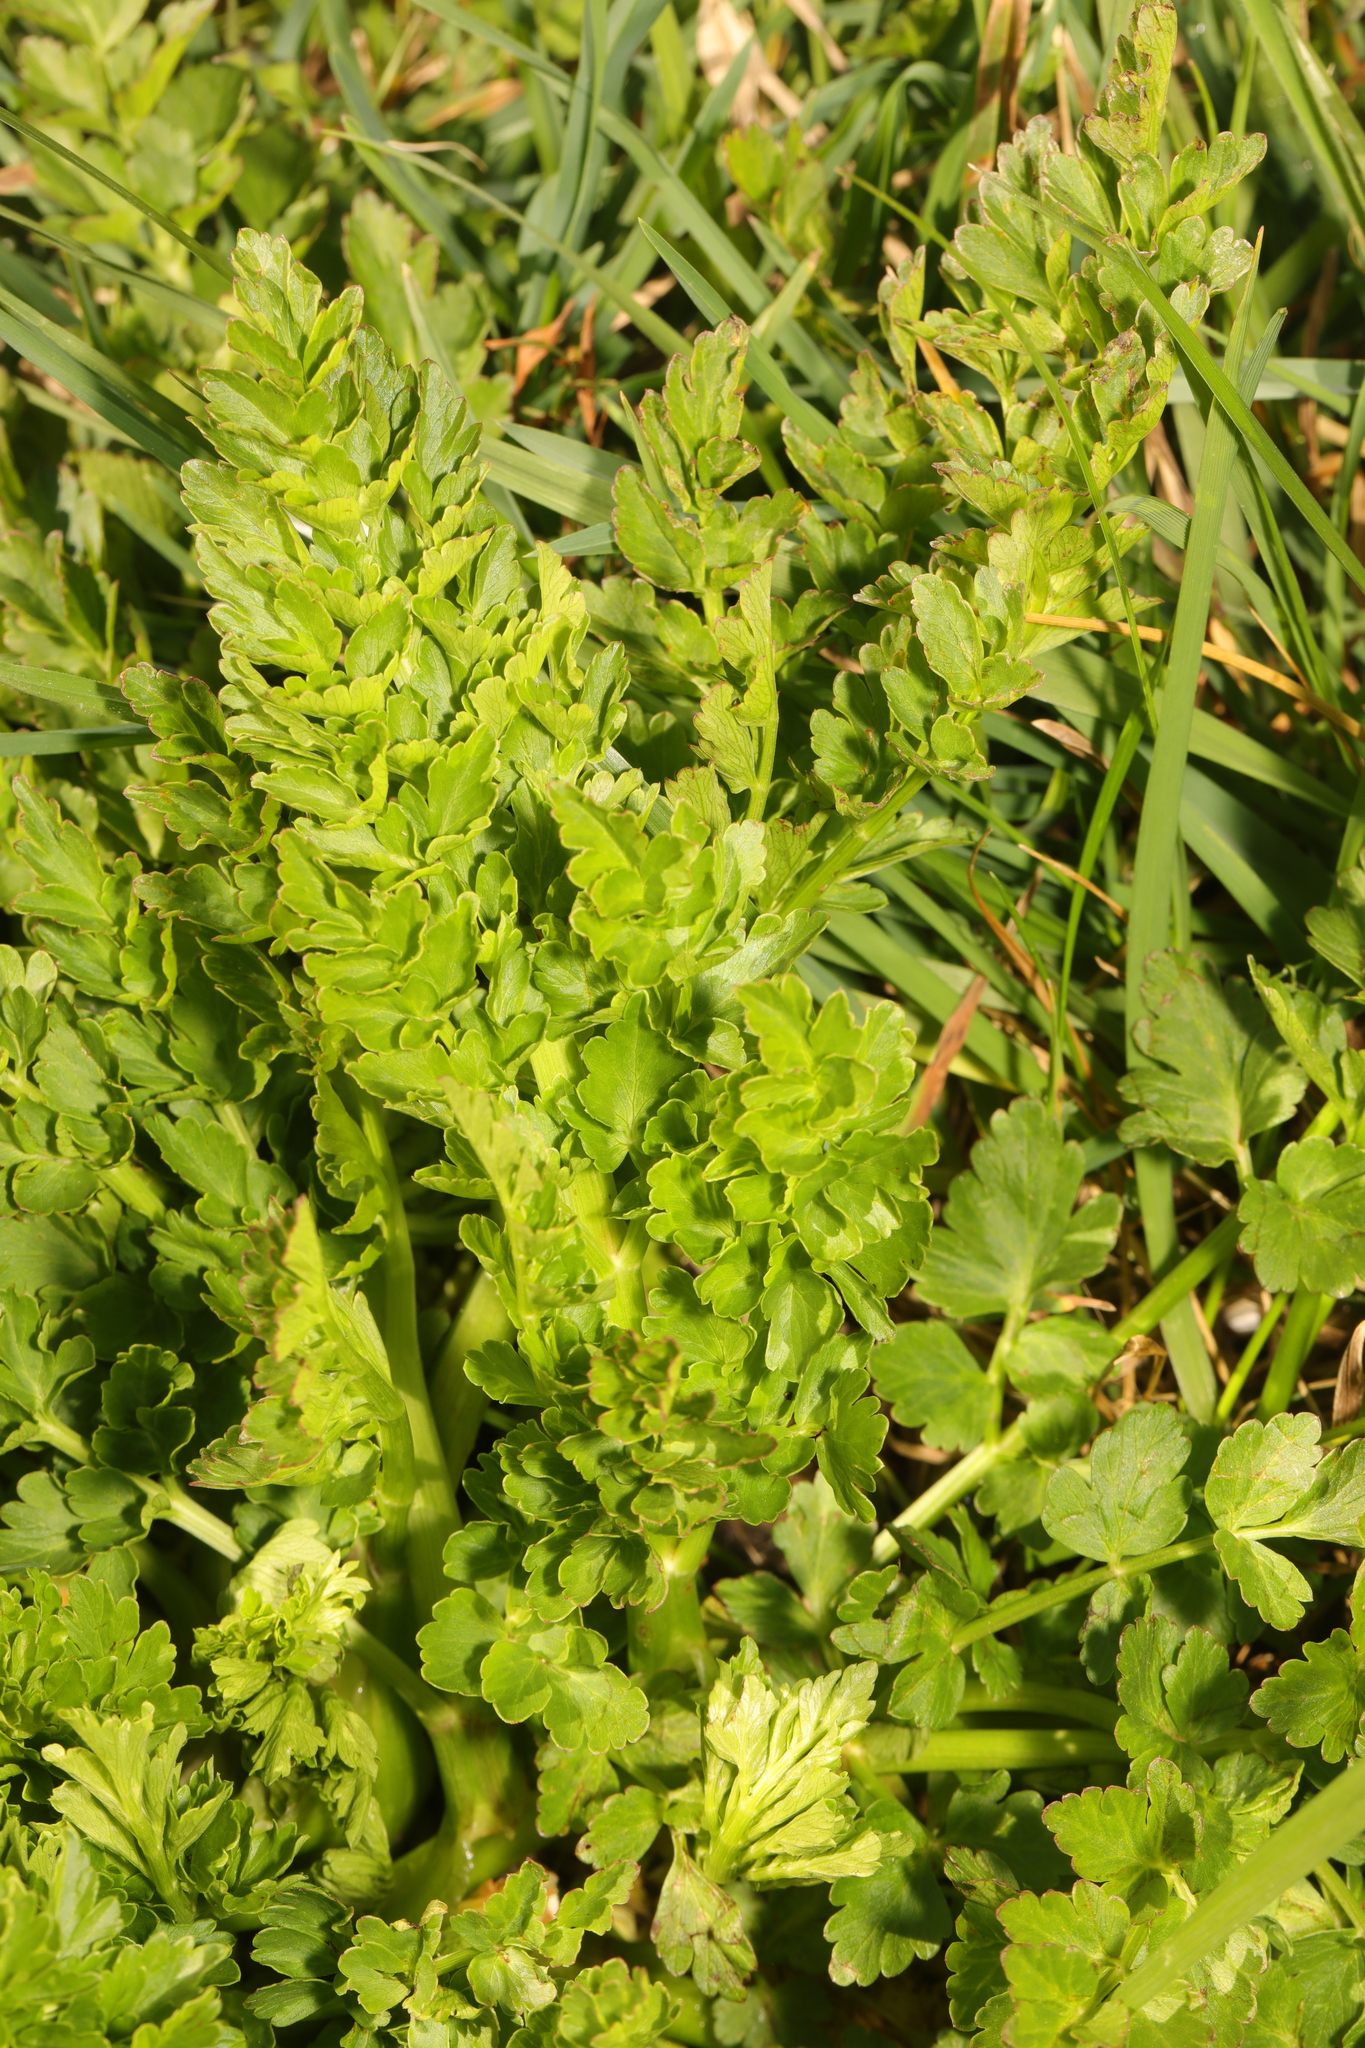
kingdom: Plantae
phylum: Tracheophyta
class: Magnoliopsida
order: Apiales
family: Apiaceae
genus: Oenanthe
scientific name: Oenanthe crocata
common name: Hemlock water-dropwort
